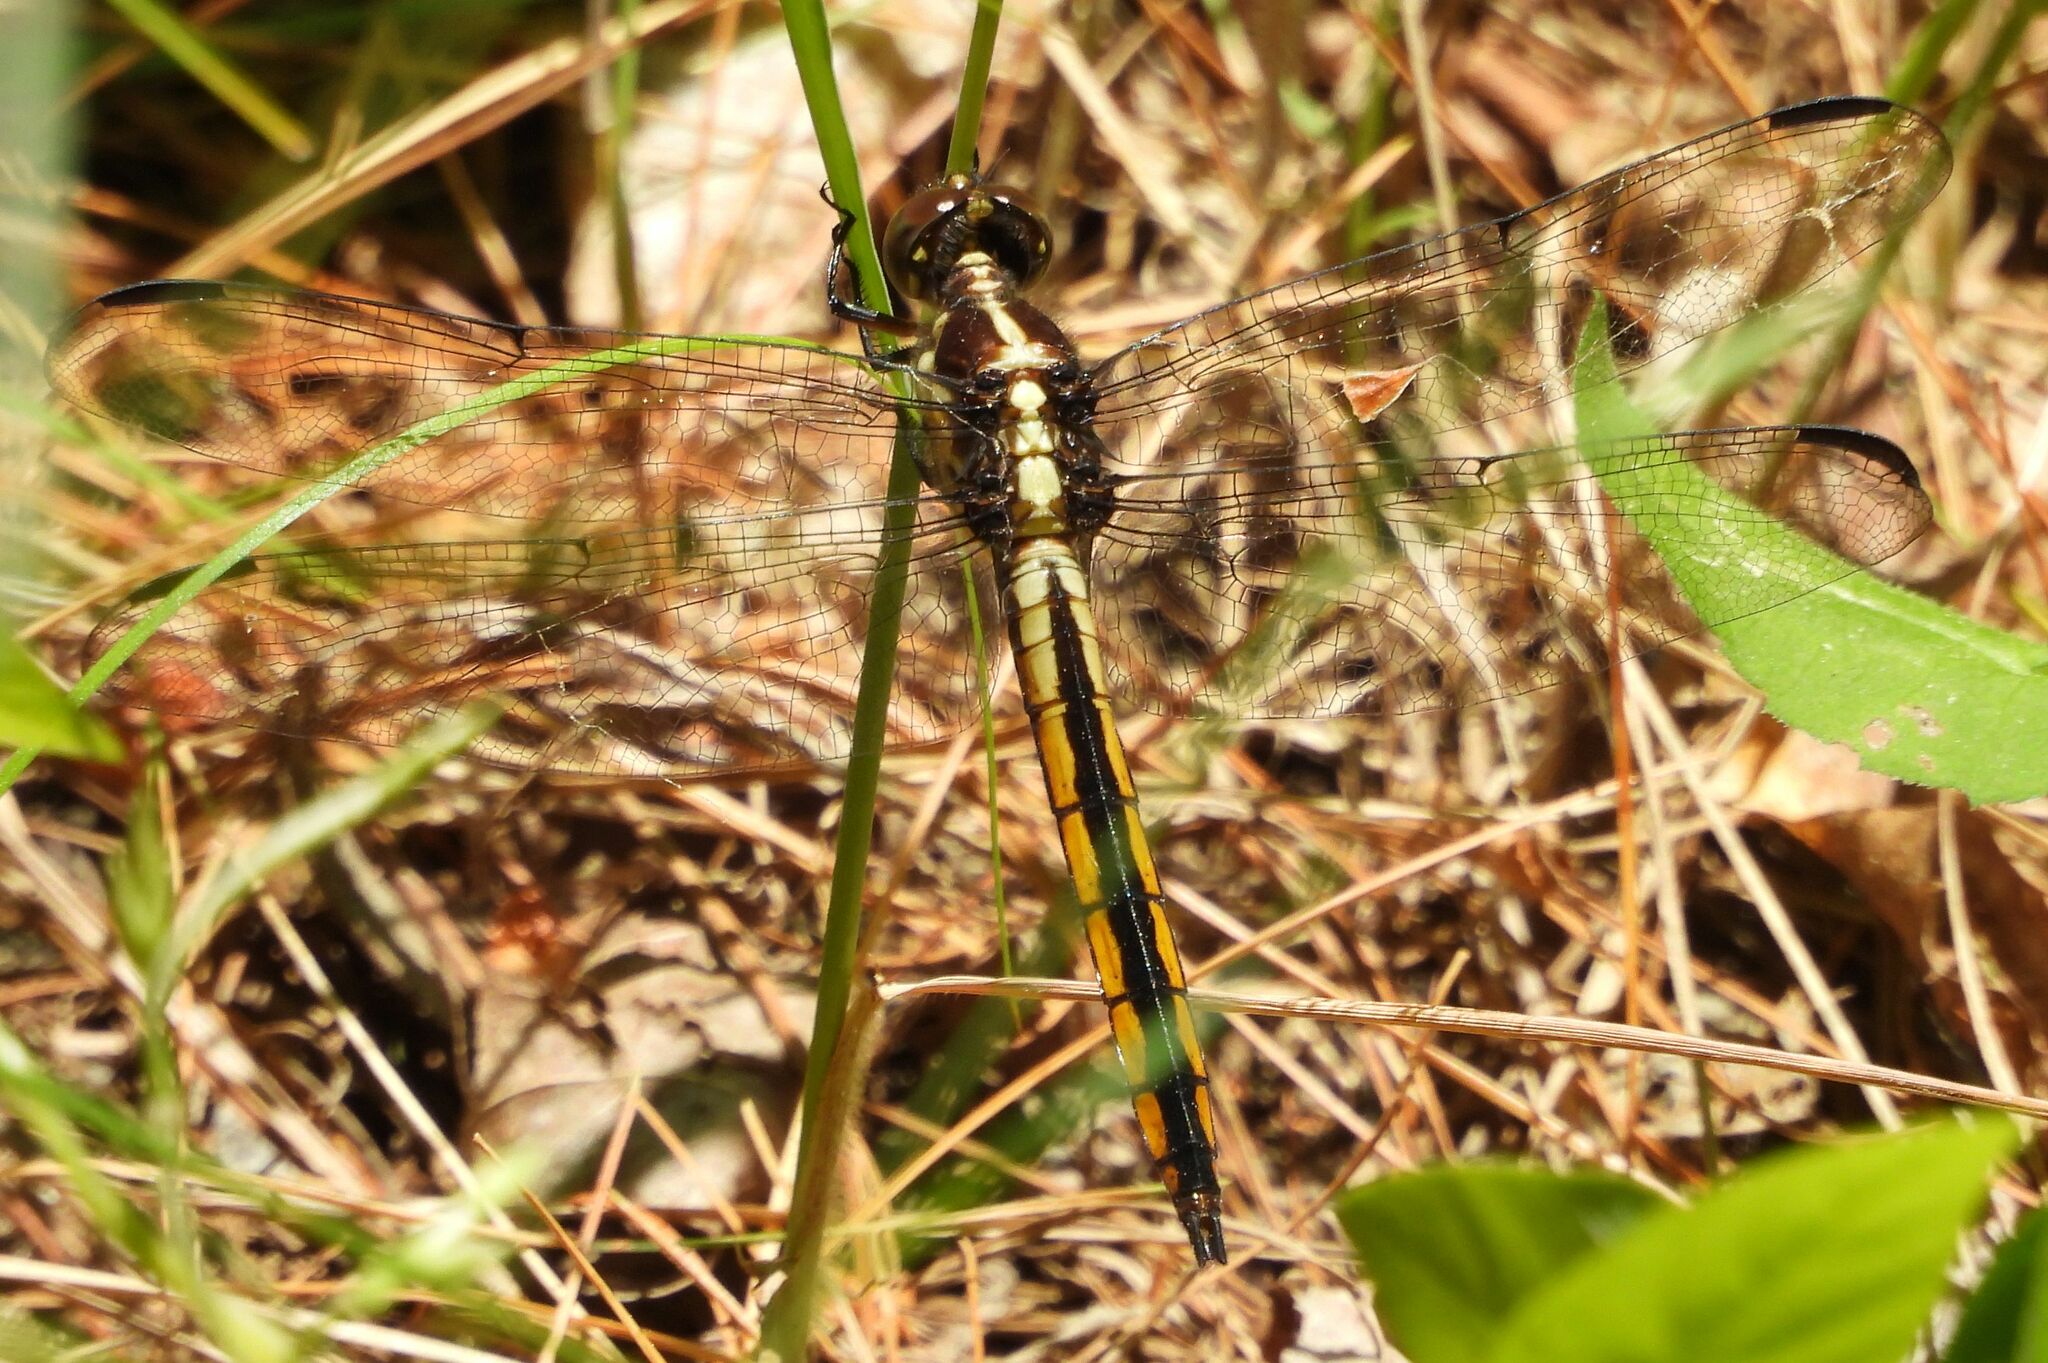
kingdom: Animalia
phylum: Arthropoda
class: Insecta
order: Odonata
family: Libellulidae
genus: Libellula
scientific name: Libellula incesta
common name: Slaty skimmer
